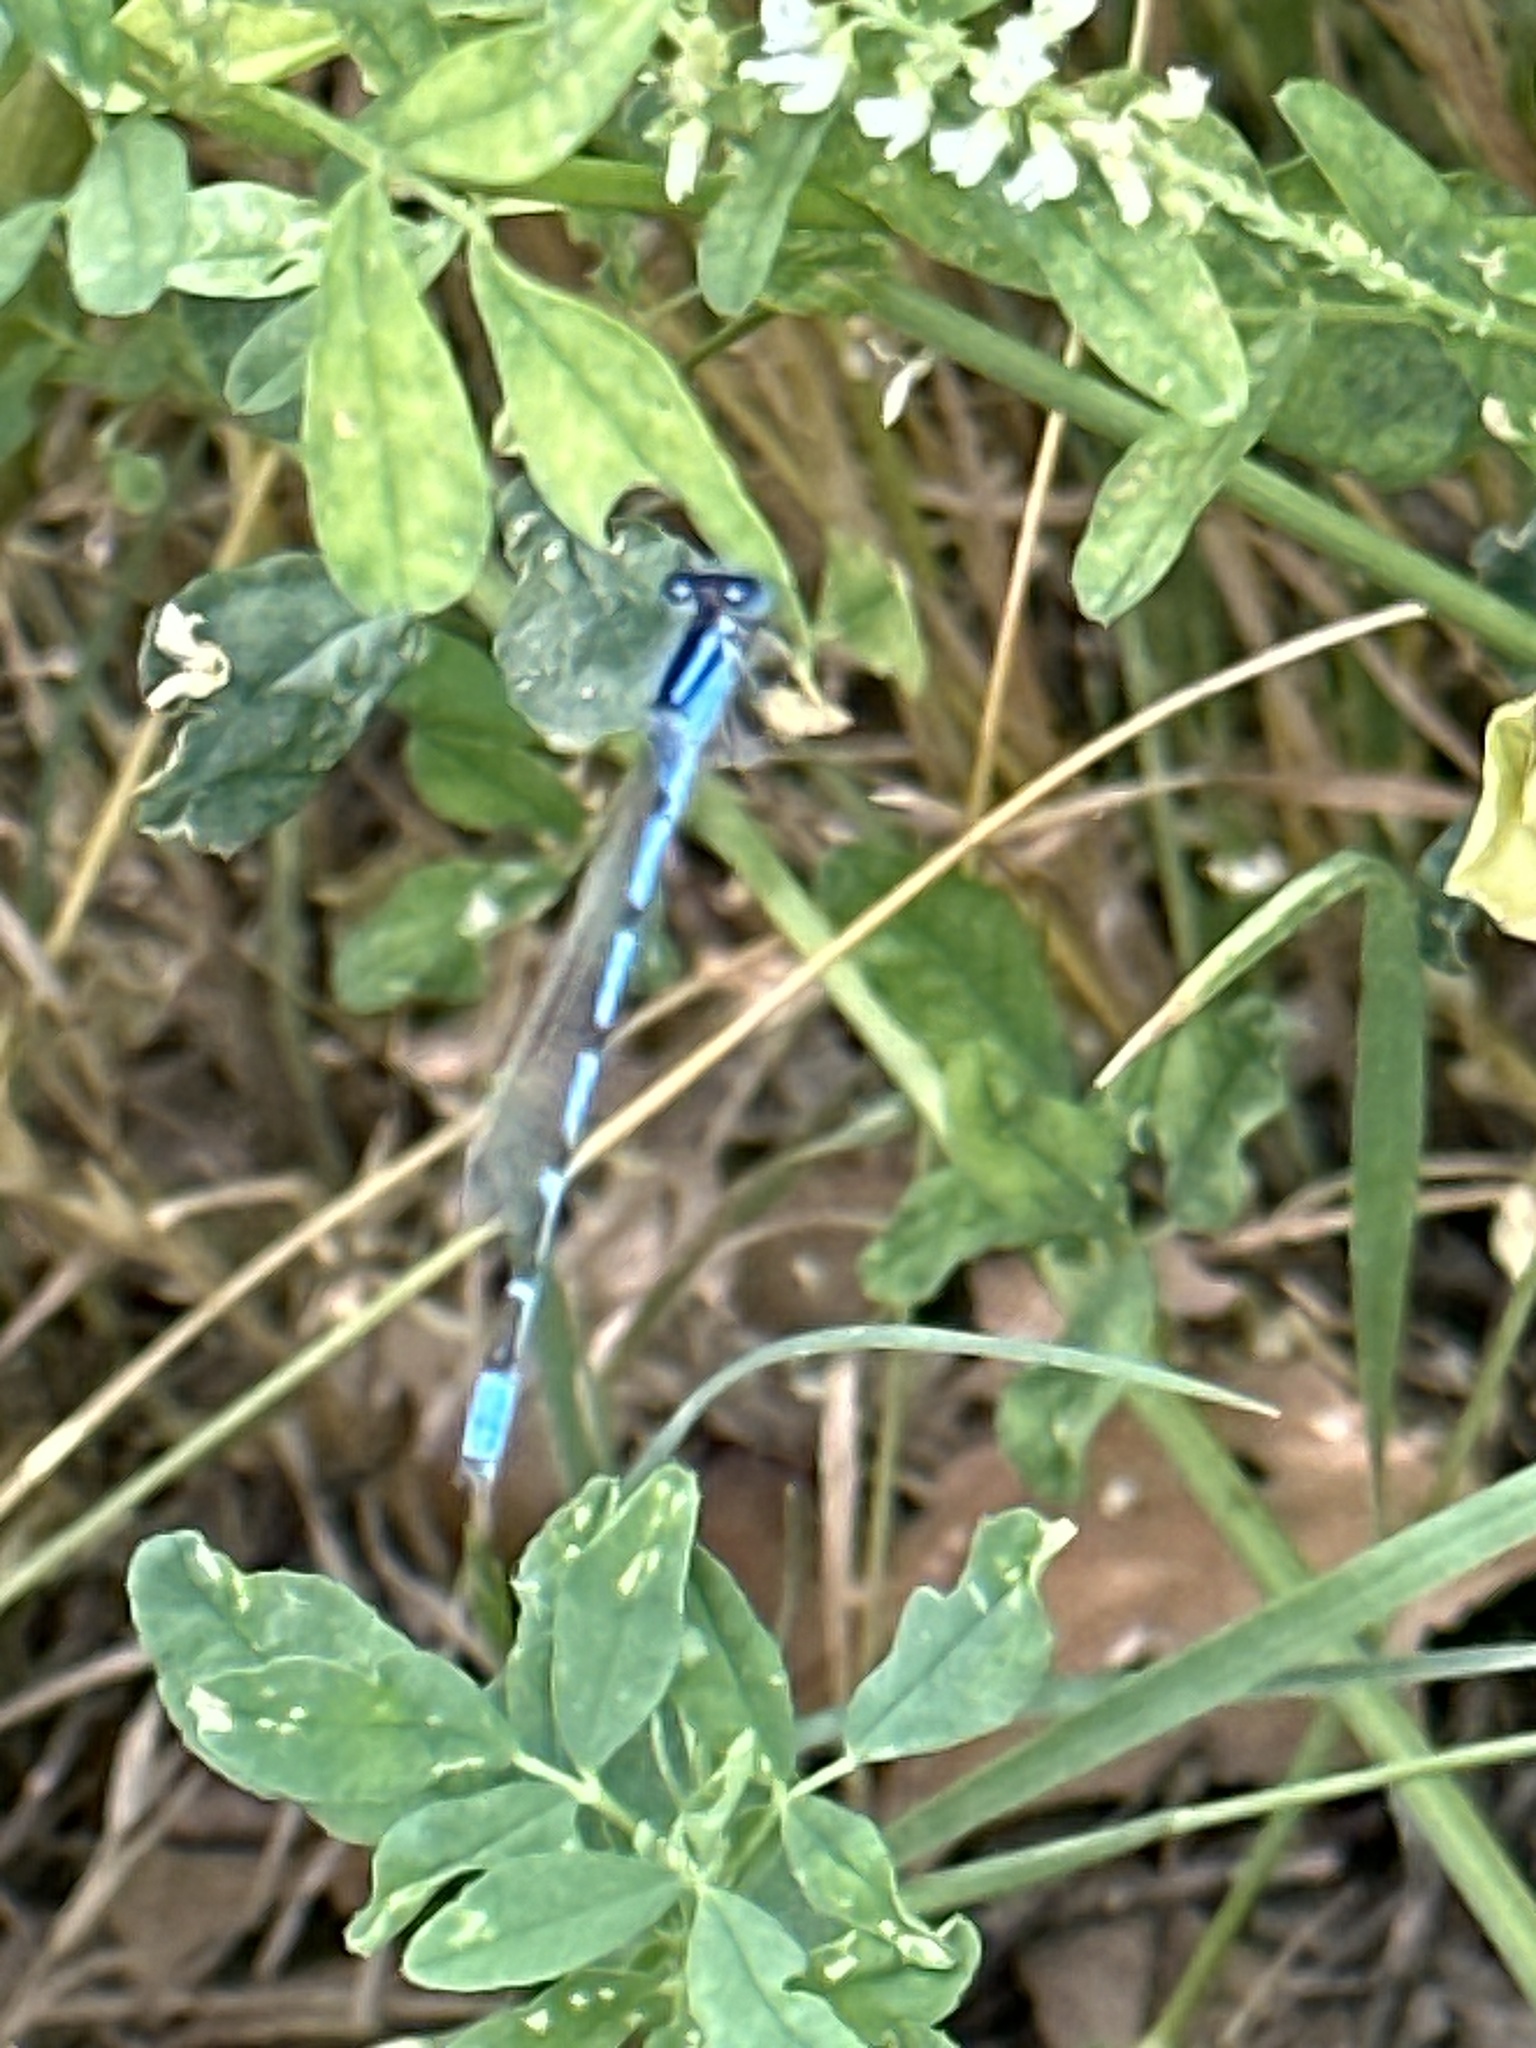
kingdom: Animalia
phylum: Arthropoda
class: Insecta
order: Odonata
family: Coenagrionidae
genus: Enallagma
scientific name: Enallagma civile
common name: Damselfly
